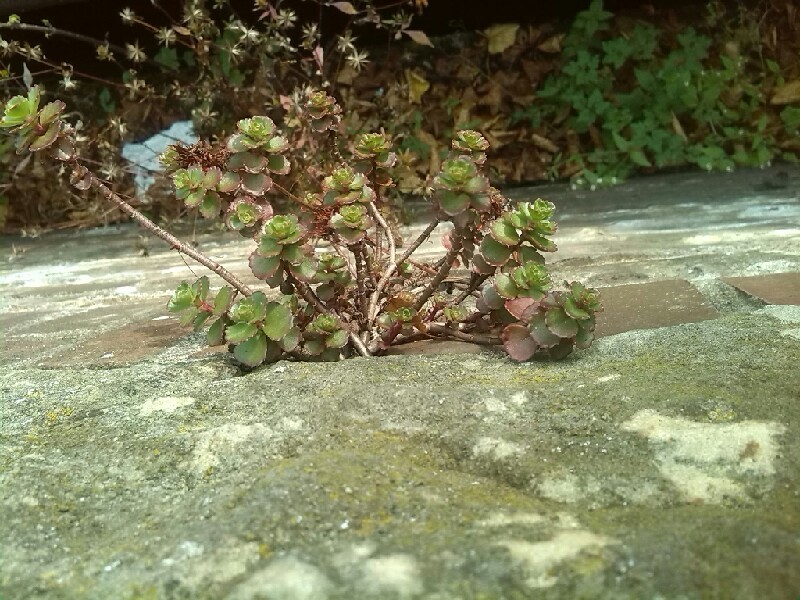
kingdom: Plantae
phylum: Tracheophyta
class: Magnoliopsida
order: Saxifragales
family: Crassulaceae
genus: Phedimus
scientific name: Phedimus spurius
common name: Caucasian stonecrop
